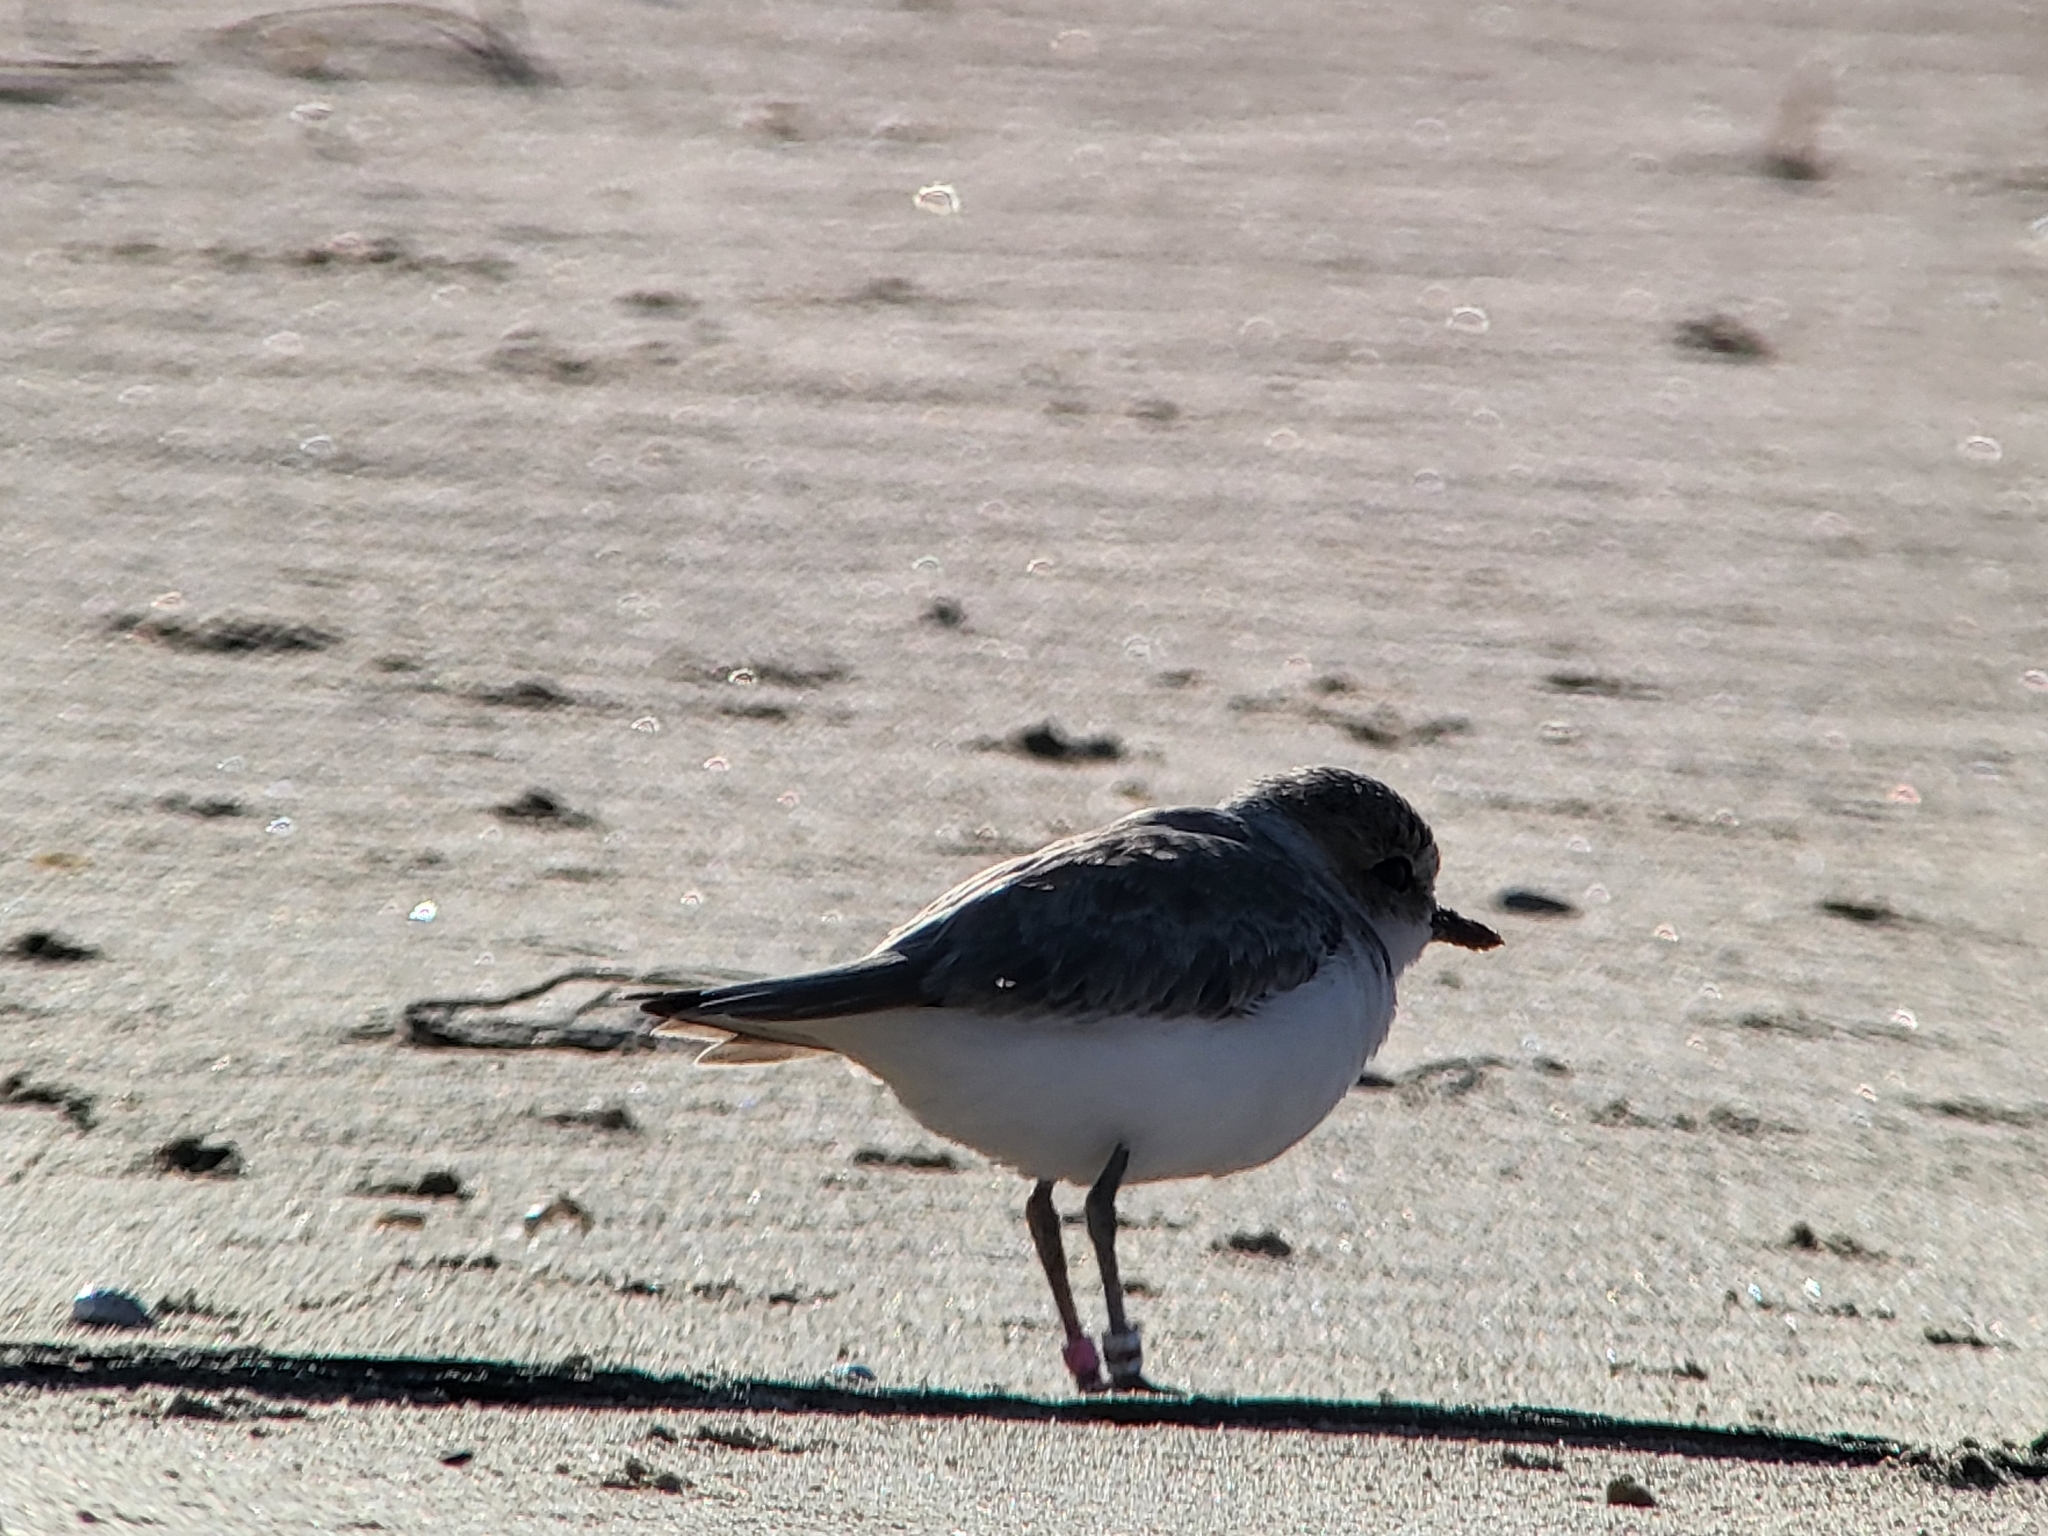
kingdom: Animalia
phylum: Chordata
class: Aves
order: Charadriiformes
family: Charadriidae
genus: Anarhynchus
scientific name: Anarhynchus
